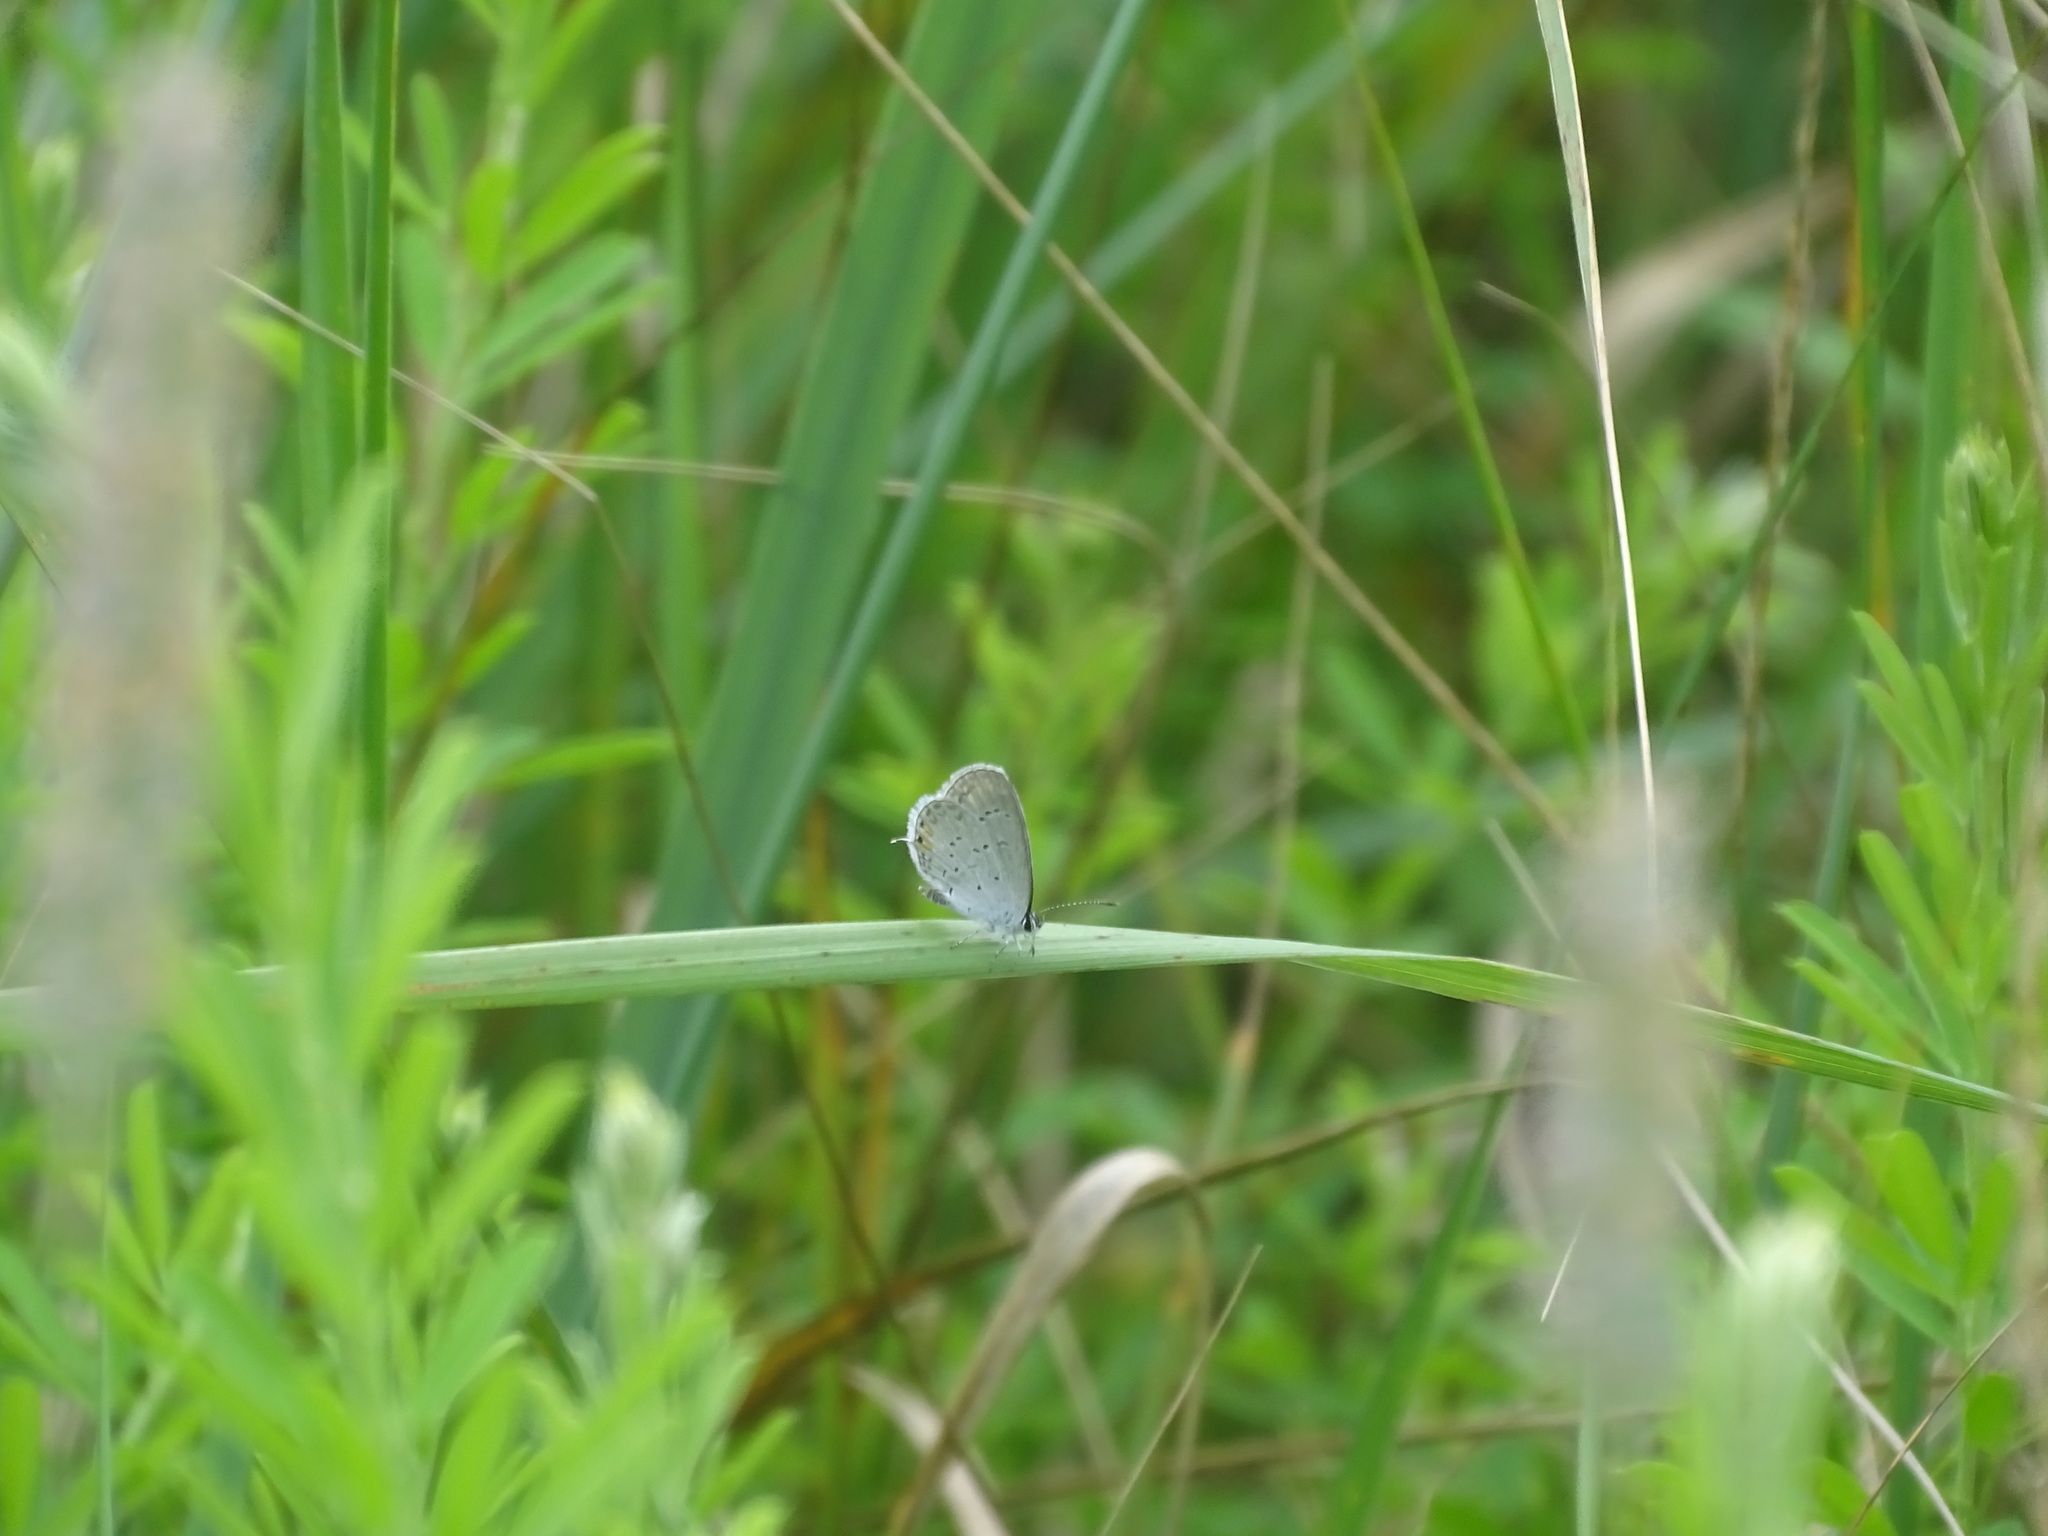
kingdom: Animalia
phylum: Arthropoda
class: Insecta
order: Lepidoptera
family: Lycaenidae
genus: Elkalyce
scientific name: Elkalyce comyntas
